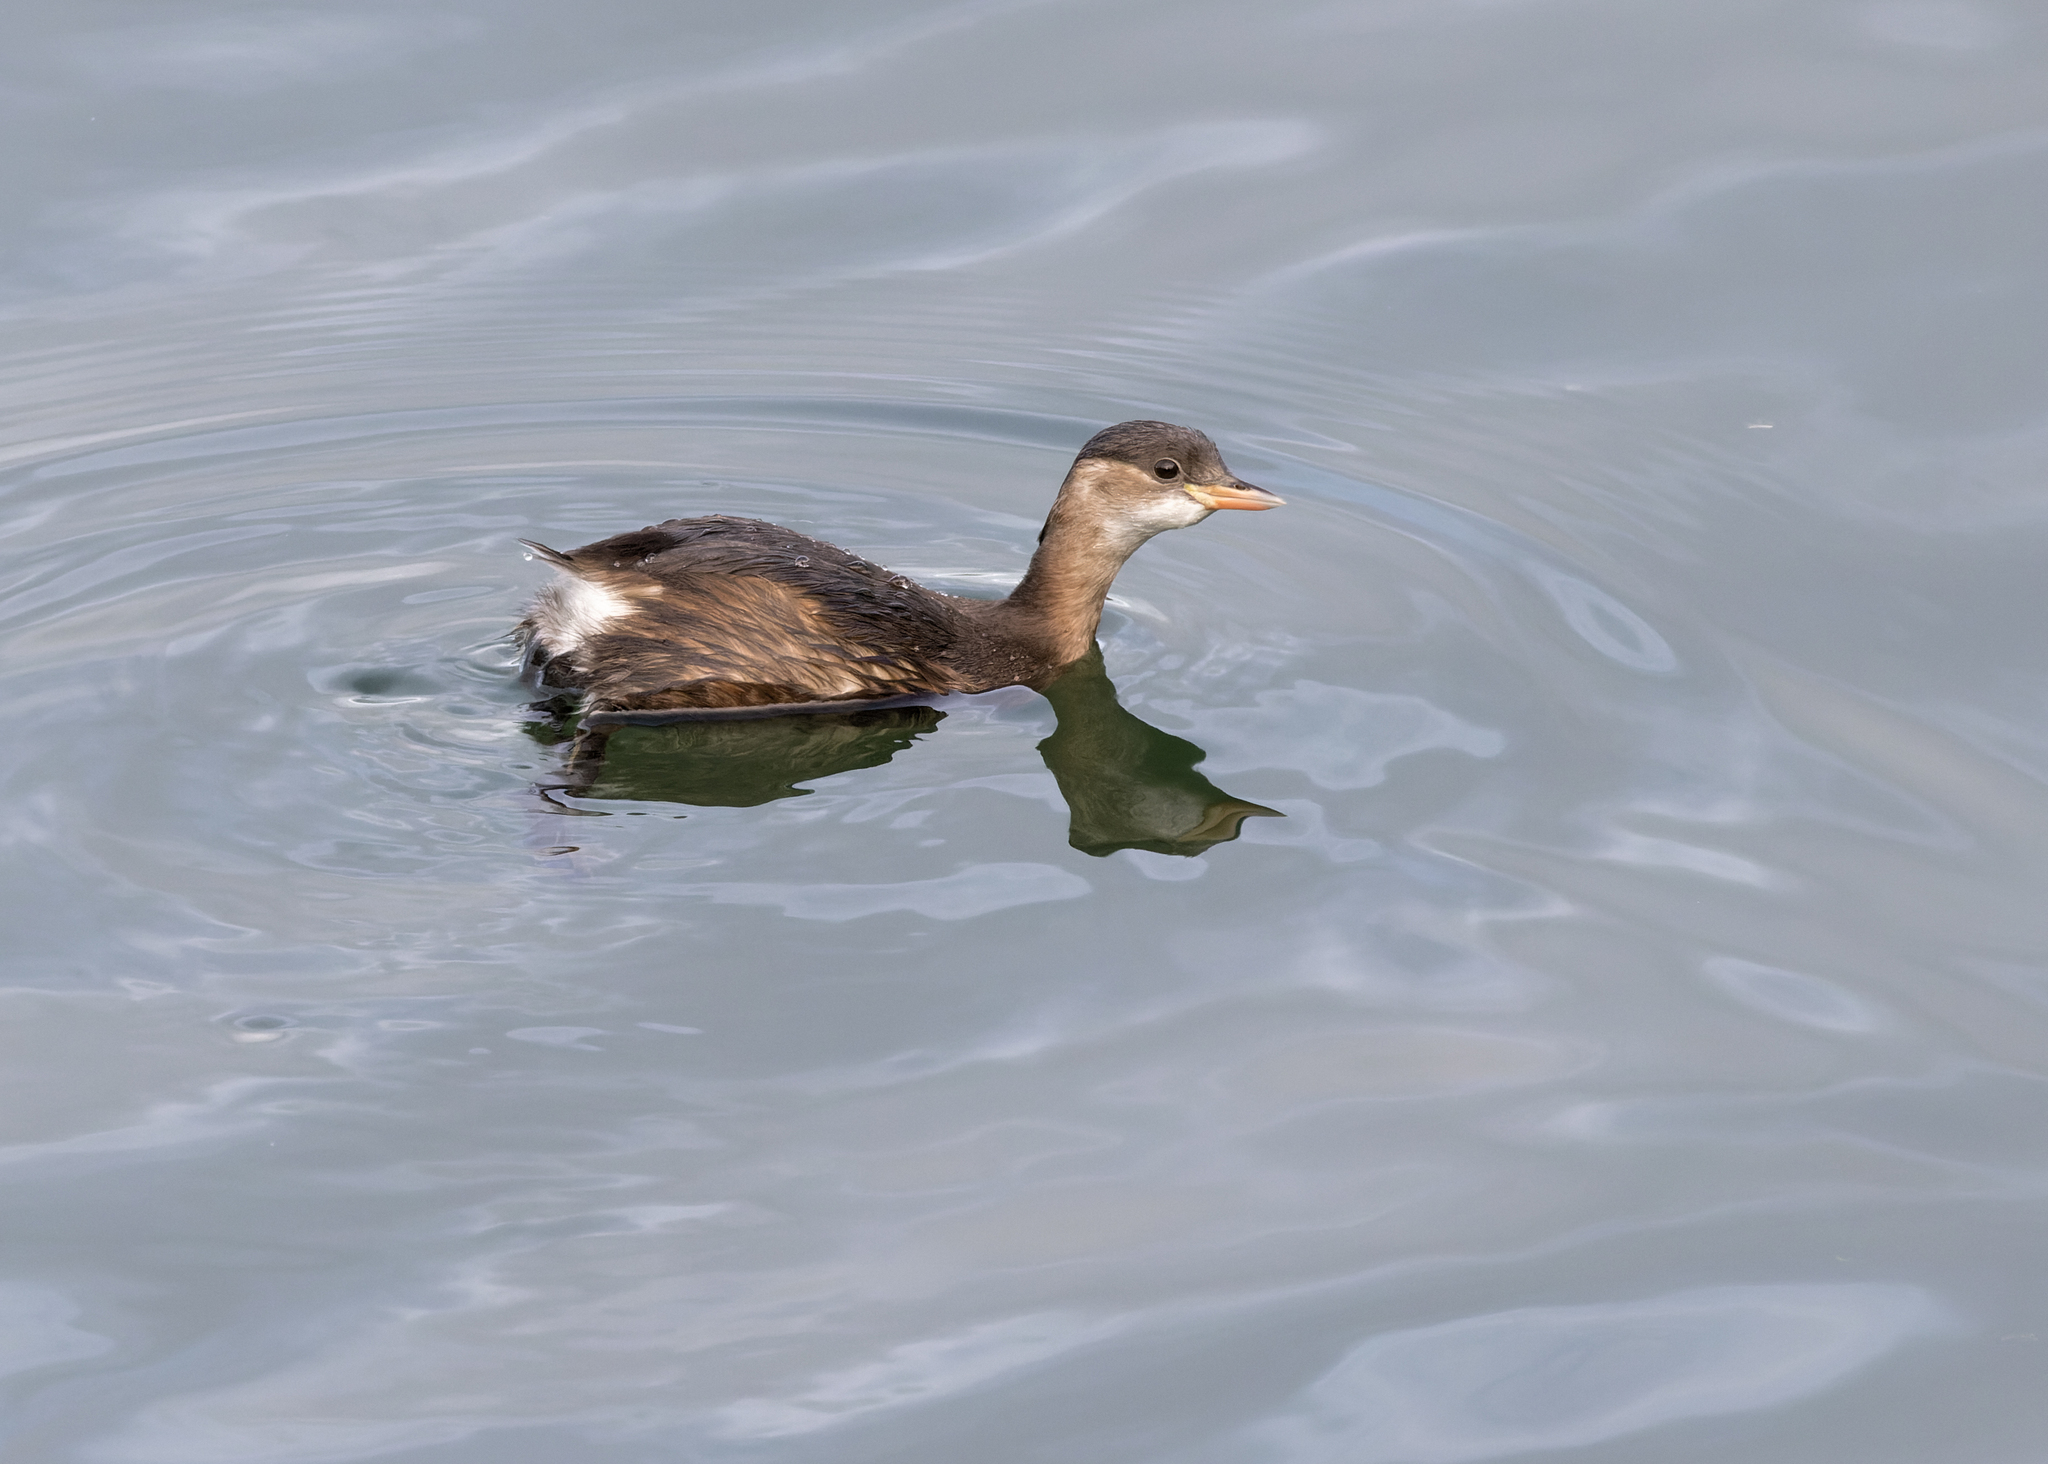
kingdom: Animalia
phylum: Chordata
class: Aves
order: Podicipediformes
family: Podicipedidae
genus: Tachybaptus
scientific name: Tachybaptus ruficollis
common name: Little grebe
